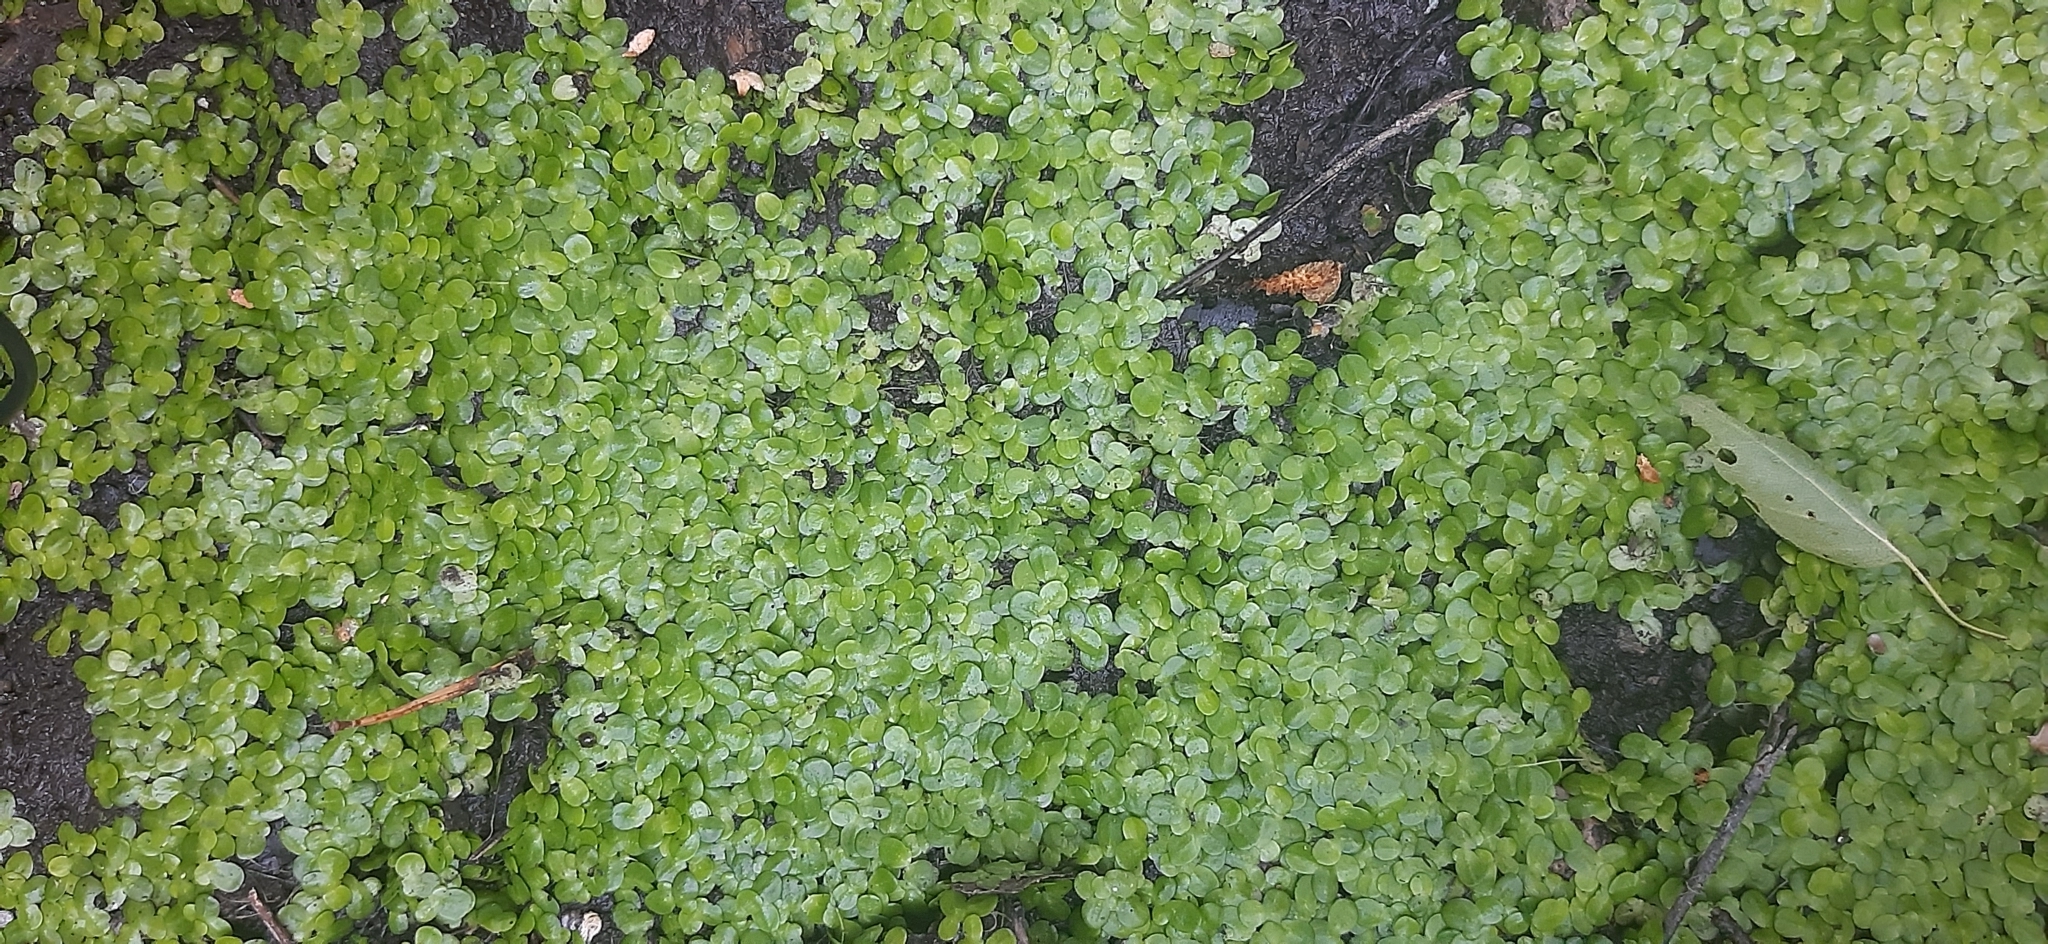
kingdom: Plantae
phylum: Tracheophyta
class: Liliopsida
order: Alismatales
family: Araceae
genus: Lemna
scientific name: Lemna minor
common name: Common duckweed
